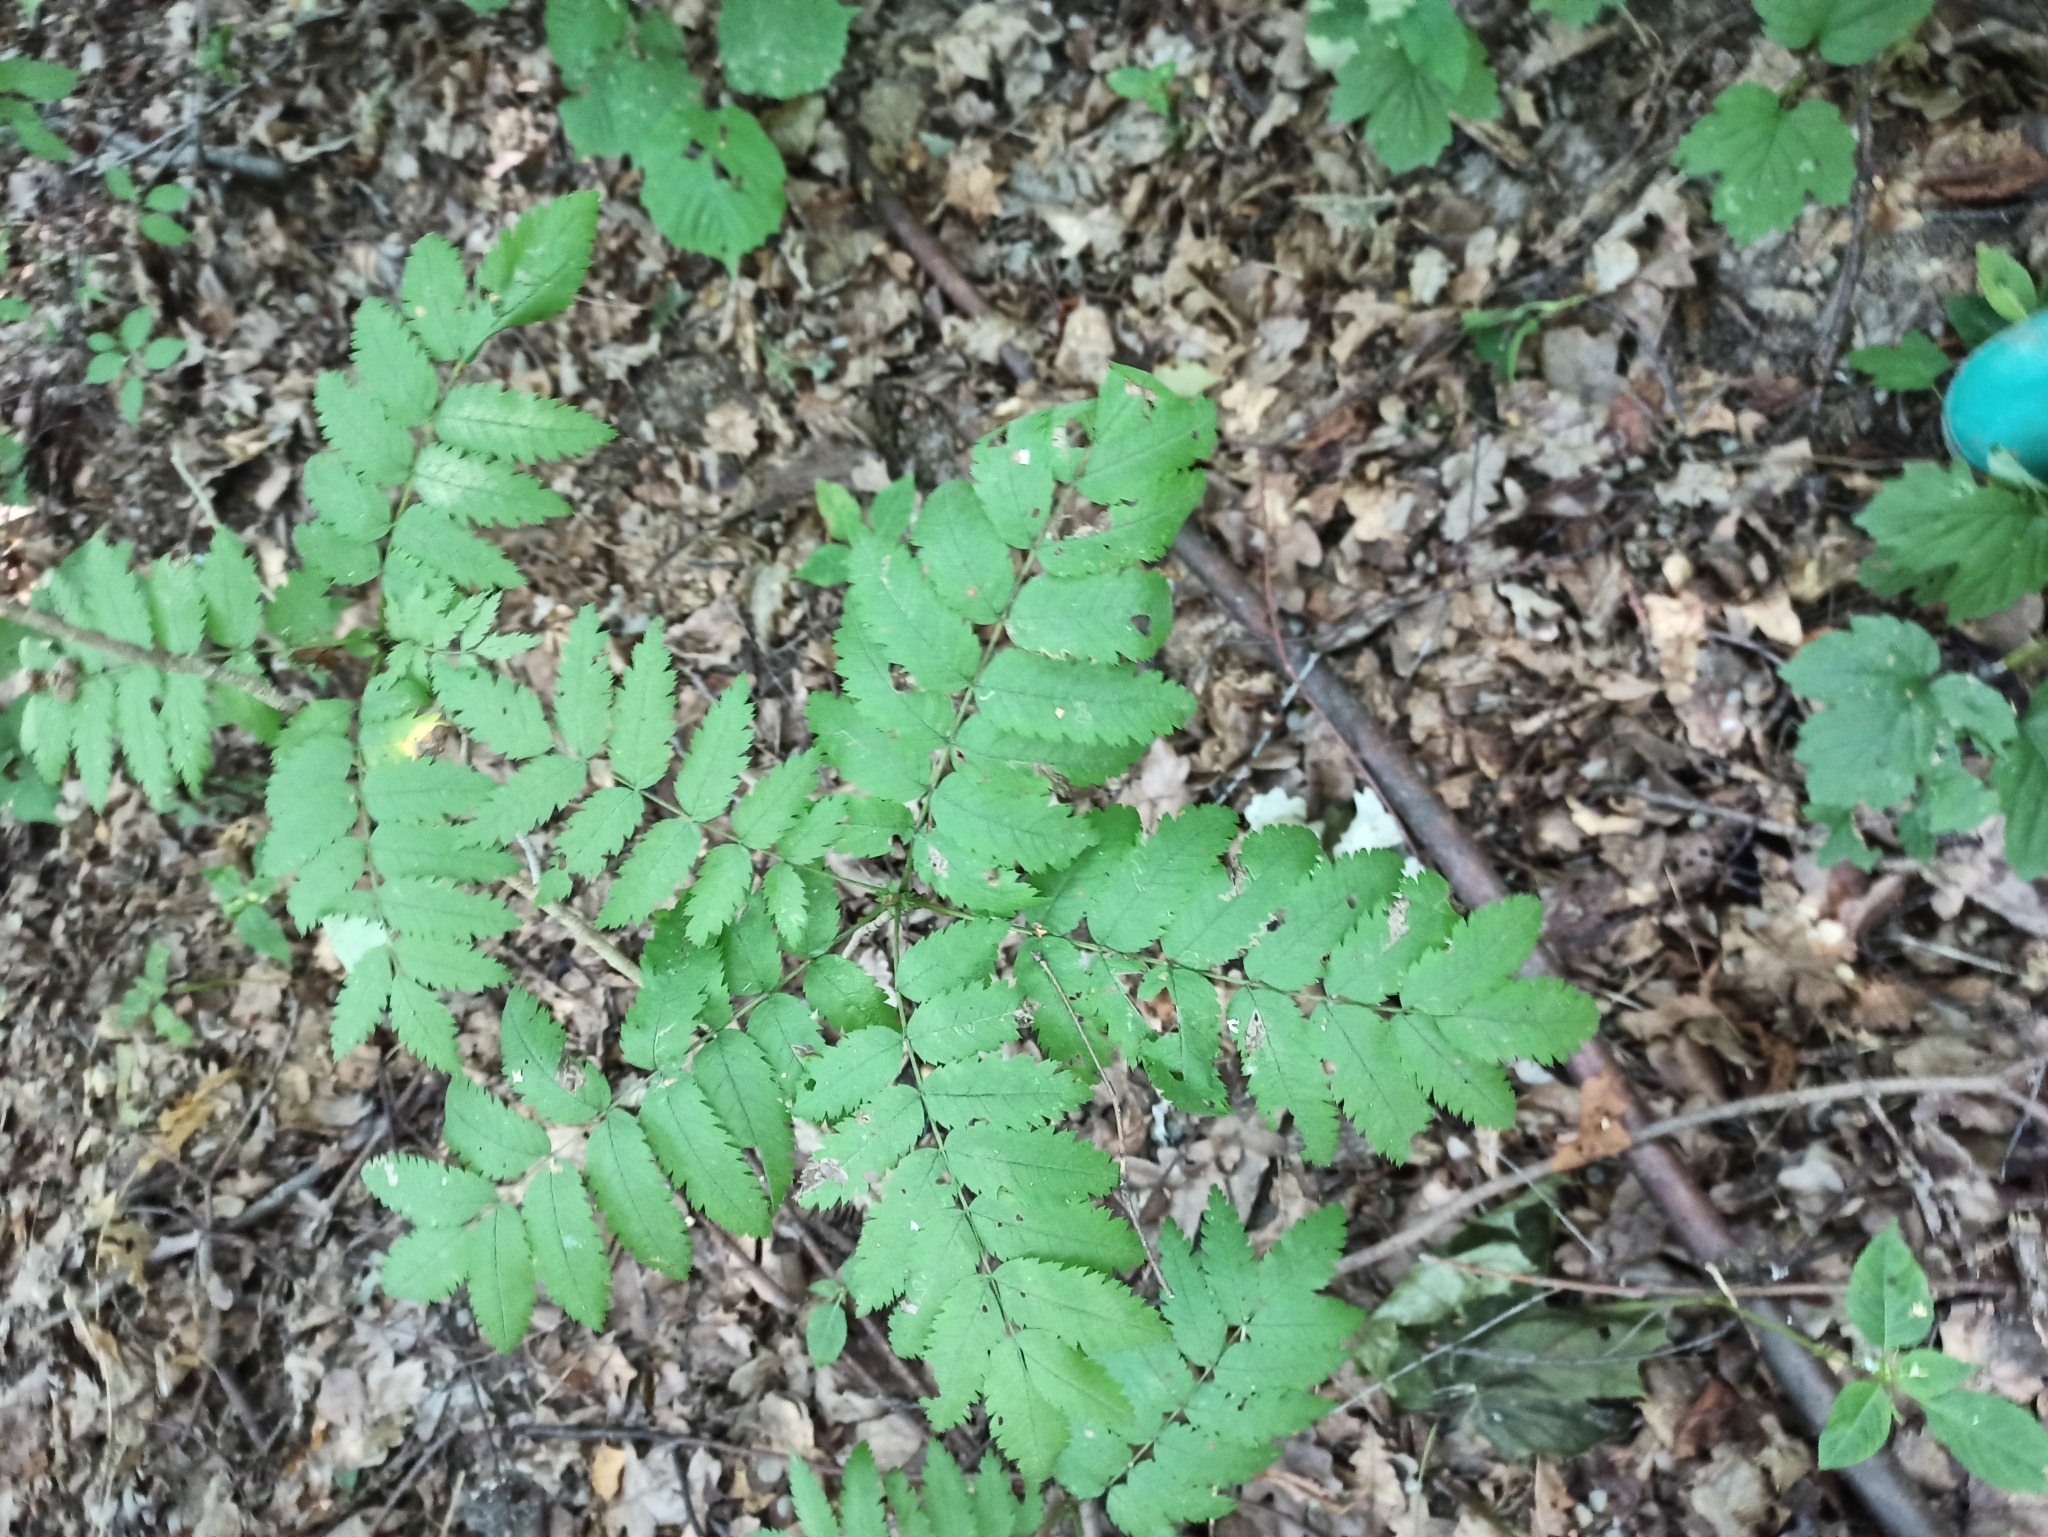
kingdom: Plantae
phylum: Tracheophyta
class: Magnoliopsida
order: Rosales
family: Rosaceae
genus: Sorbus
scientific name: Sorbus aucuparia
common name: Rowan
